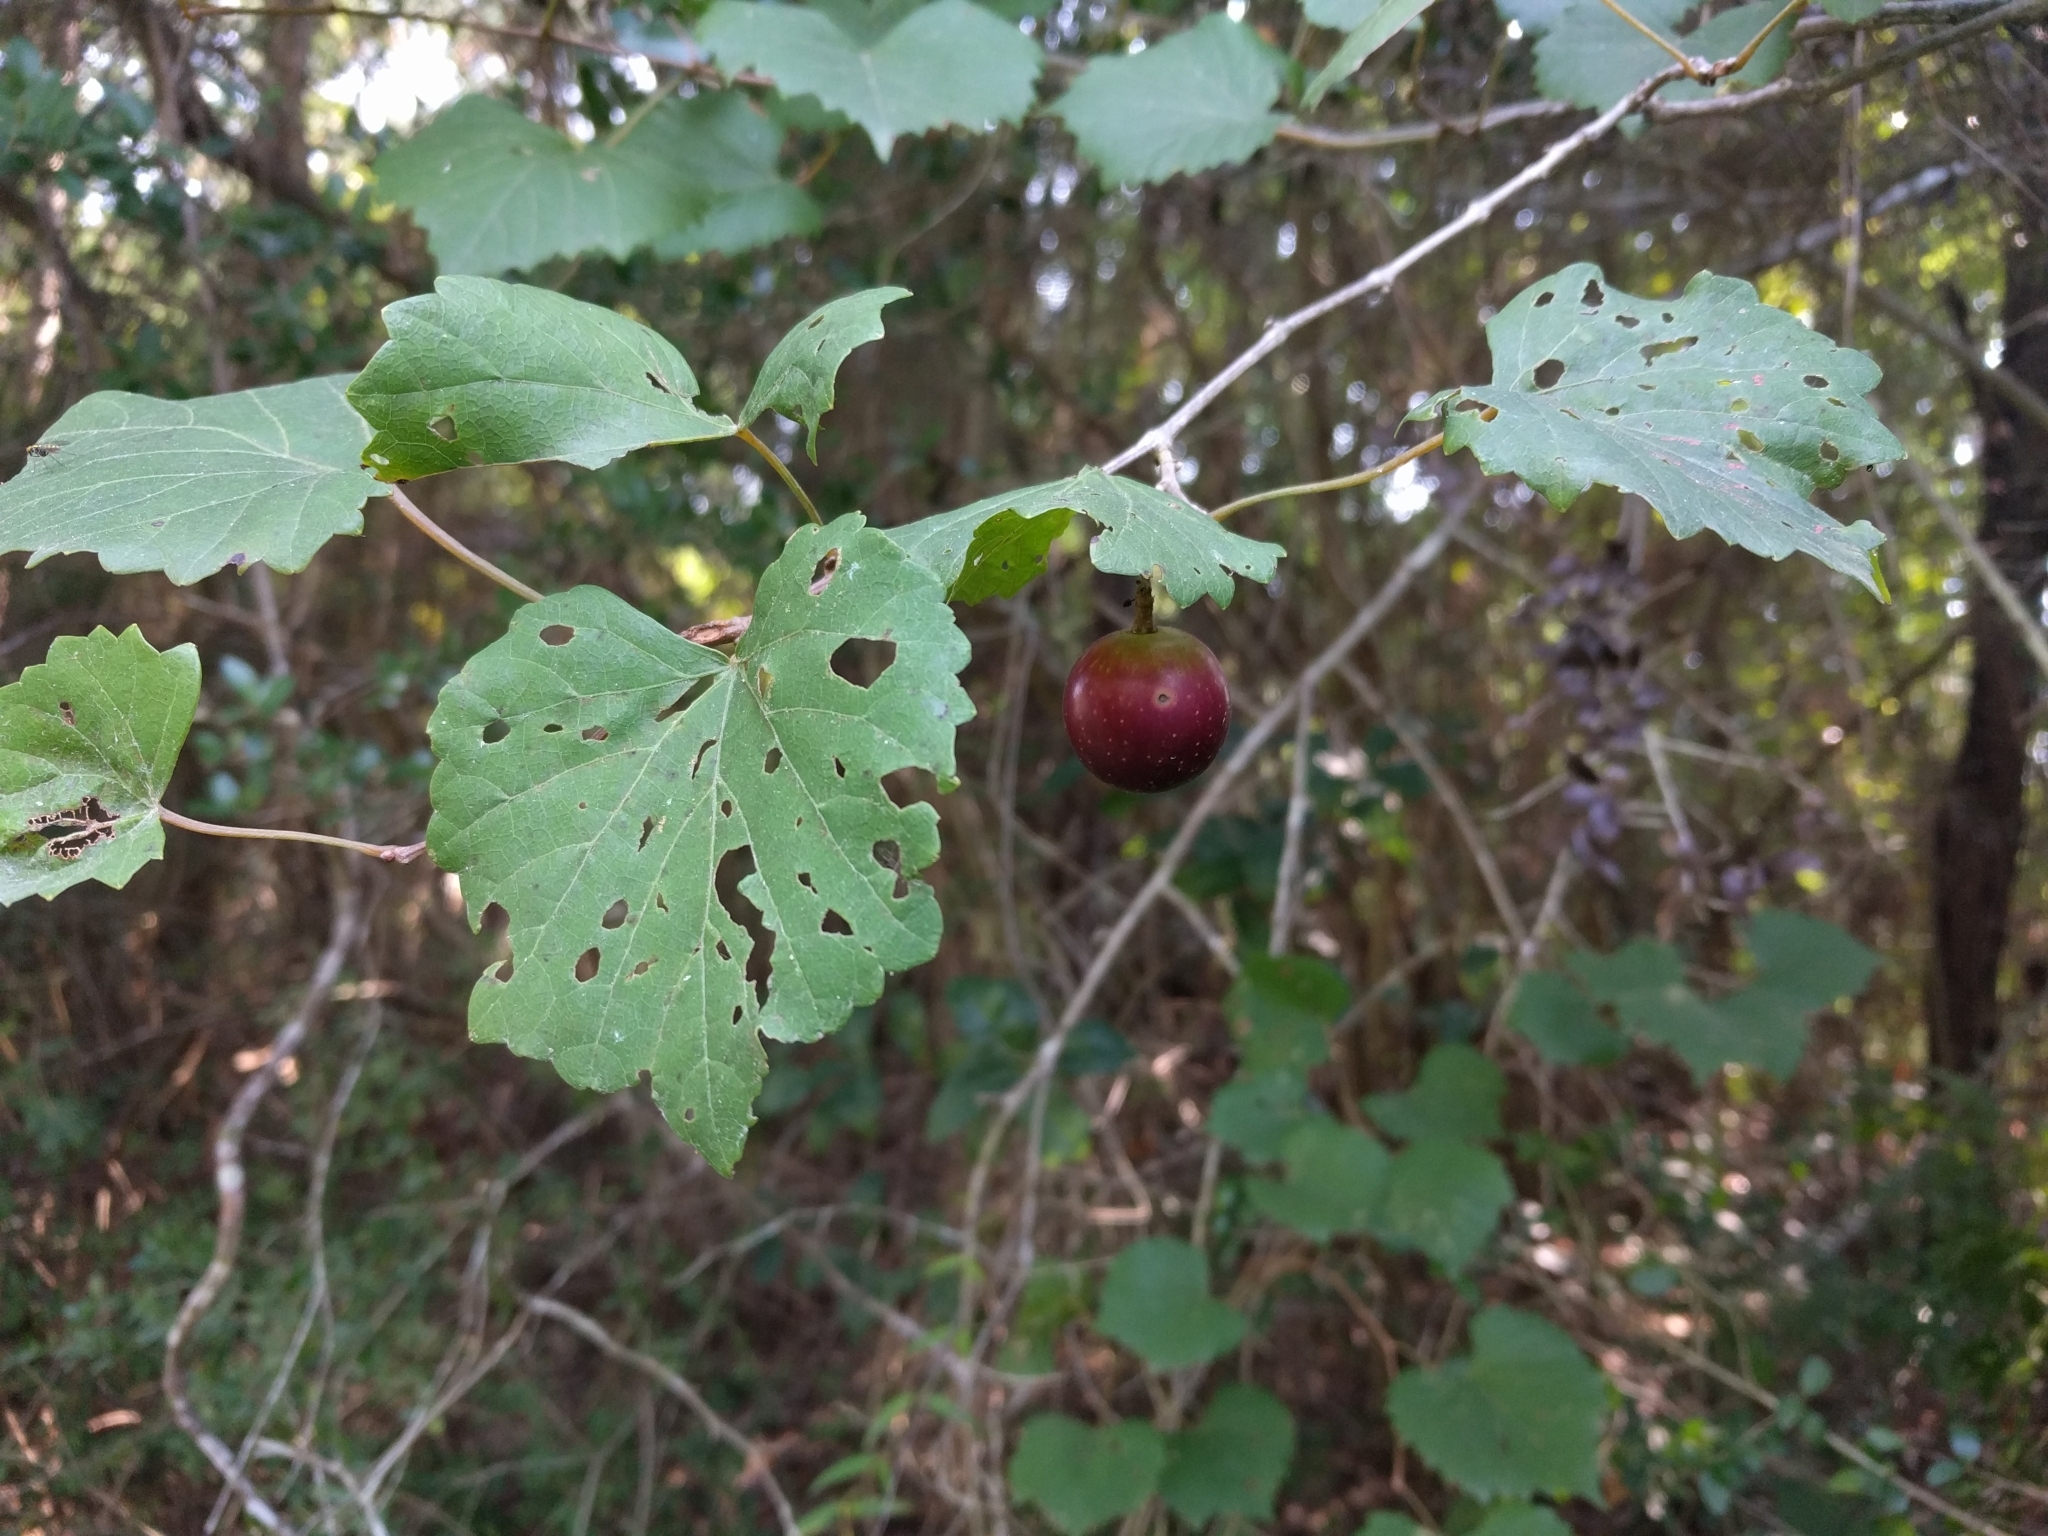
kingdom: Plantae
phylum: Tracheophyta
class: Magnoliopsida
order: Vitales
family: Vitaceae
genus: Vitis
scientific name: Vitis rotundifolia
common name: Muscadine grape
